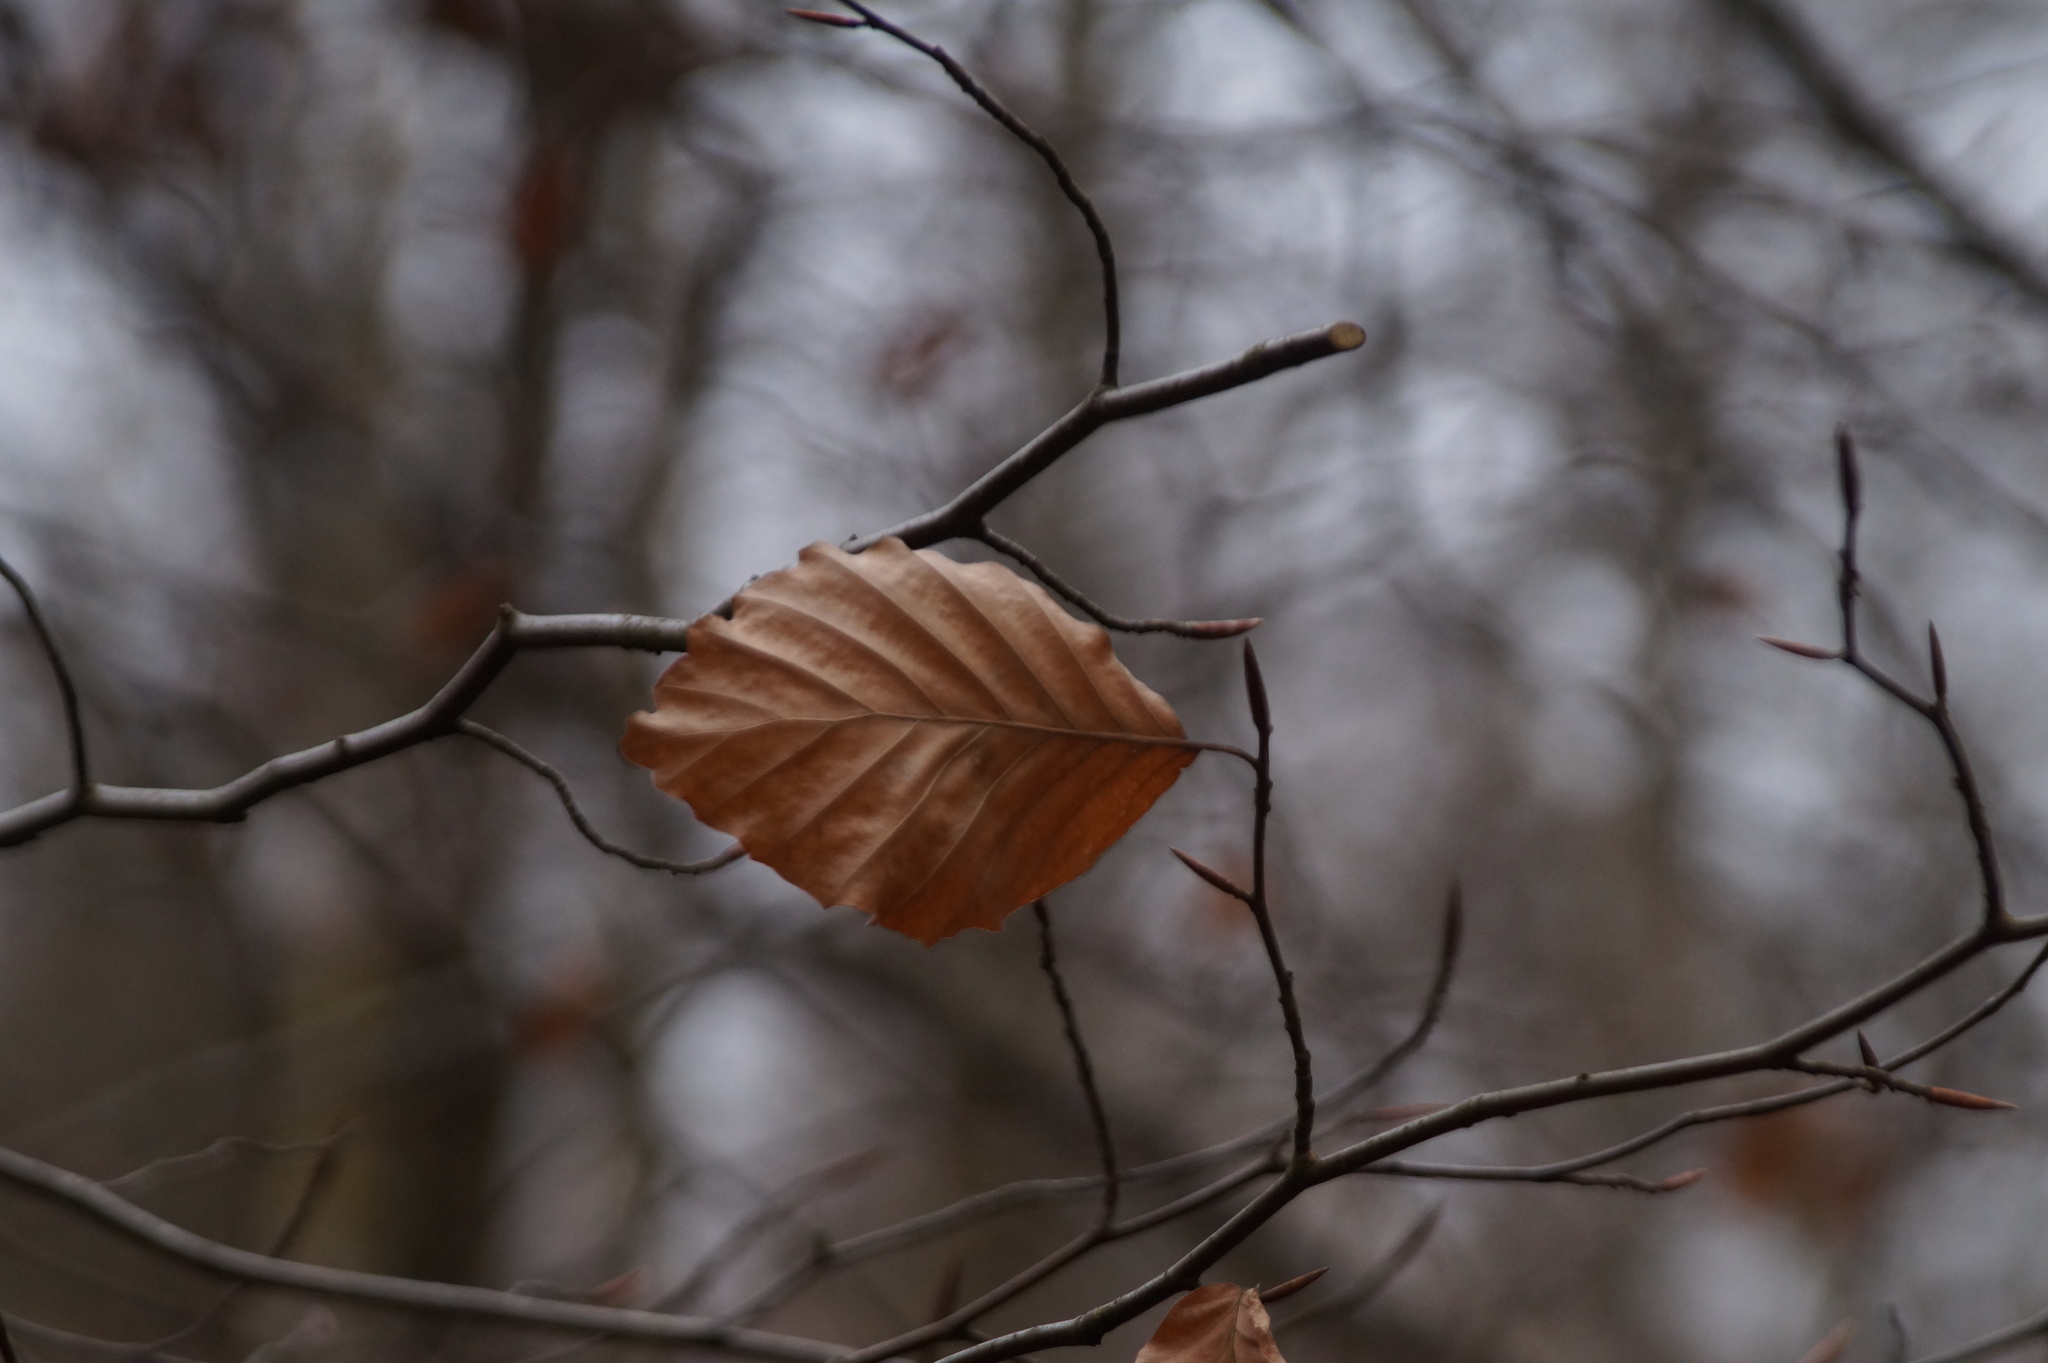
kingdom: Plantae
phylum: Tracheophyta
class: Magnoliopsida
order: Fagales
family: Fagaceae
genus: Fagus
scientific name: Fagus sylvatica
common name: Beech
